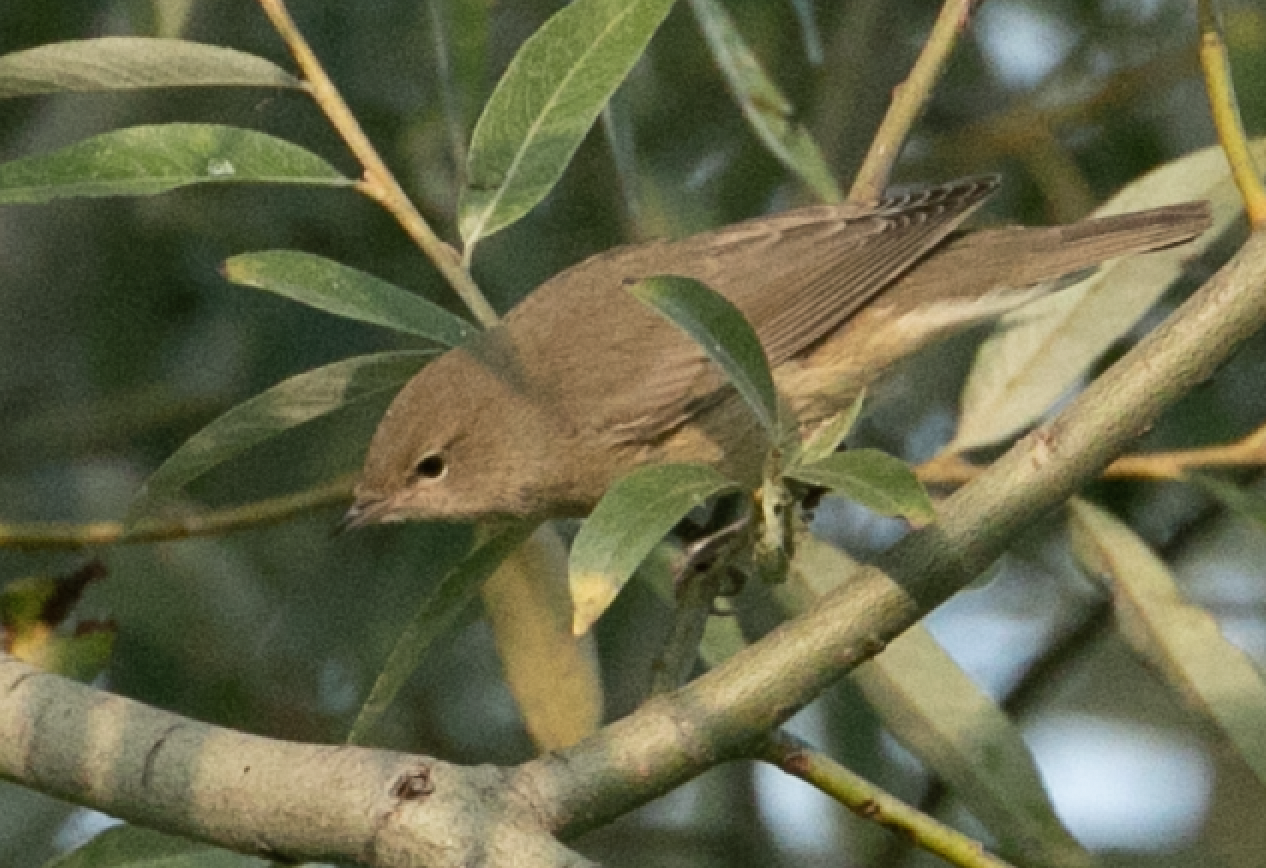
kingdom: Animalia
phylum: Chordata
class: Aves
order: Passeriformes
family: Sylviidae
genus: Sylvia
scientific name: Sylvia borin
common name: Garden warbler
